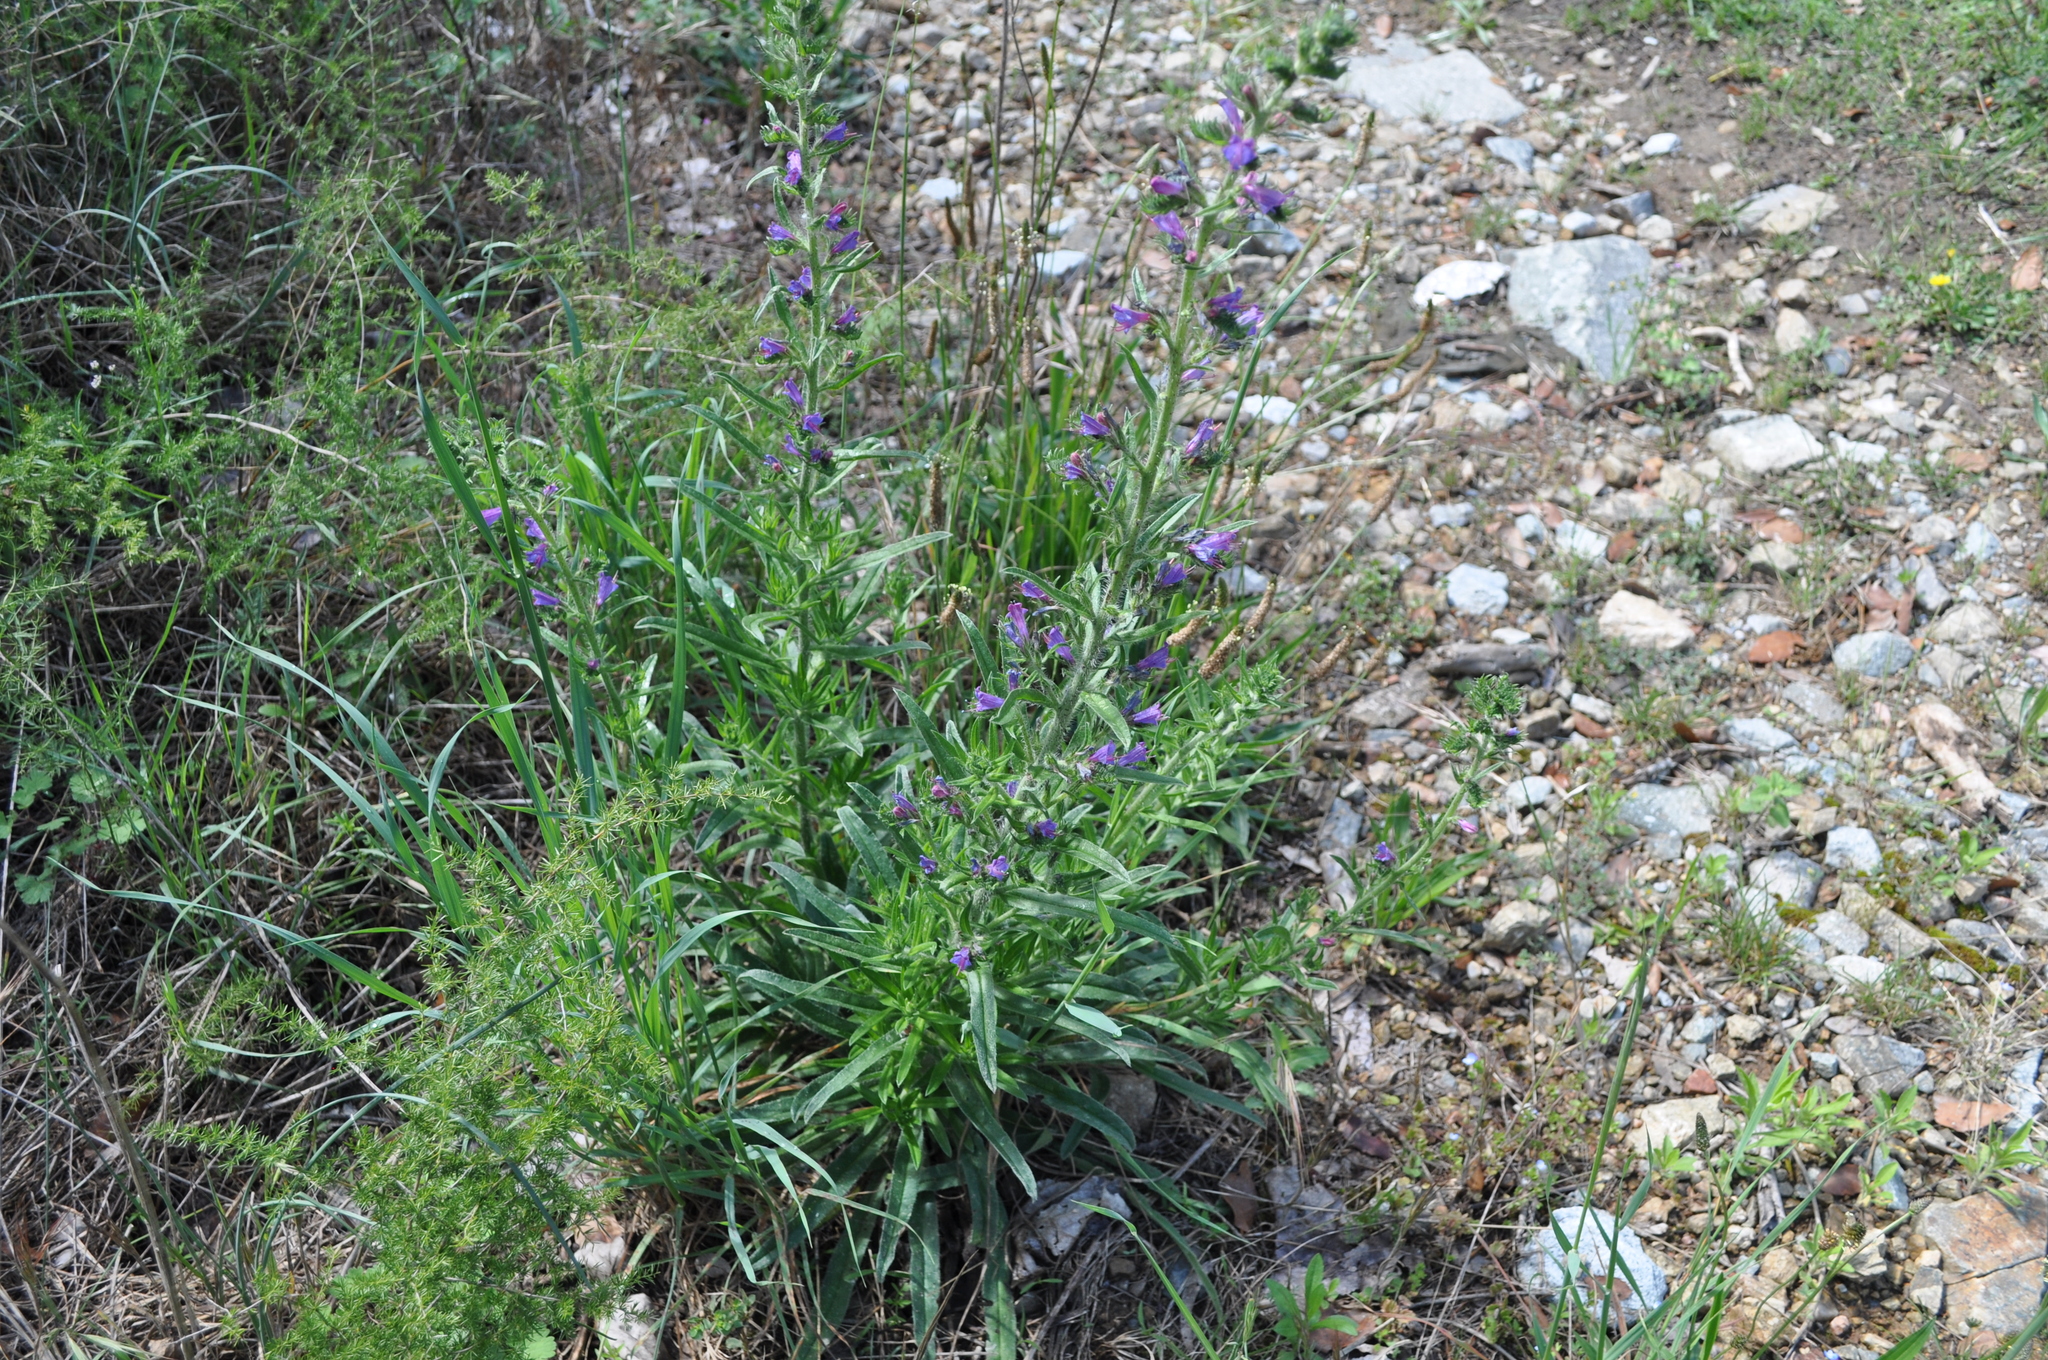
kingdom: Plantae
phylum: Tracheophyta
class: Magnoliopsida
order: Boraginales
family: Boraginaceae
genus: Echium
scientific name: Echium vulgare
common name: Common viper's bugloss
